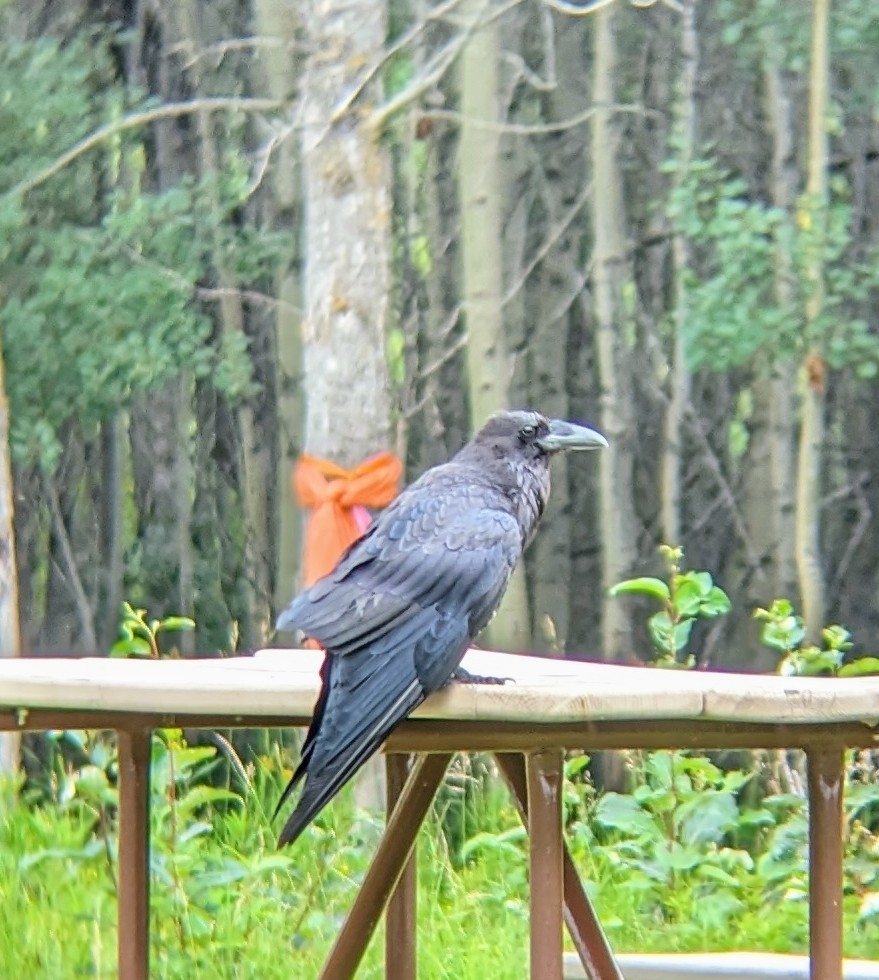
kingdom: Animalia
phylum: Chordata
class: Aves
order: Passeriformes
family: Corvidae
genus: Corvus
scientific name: Corvus corax
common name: Common raven
